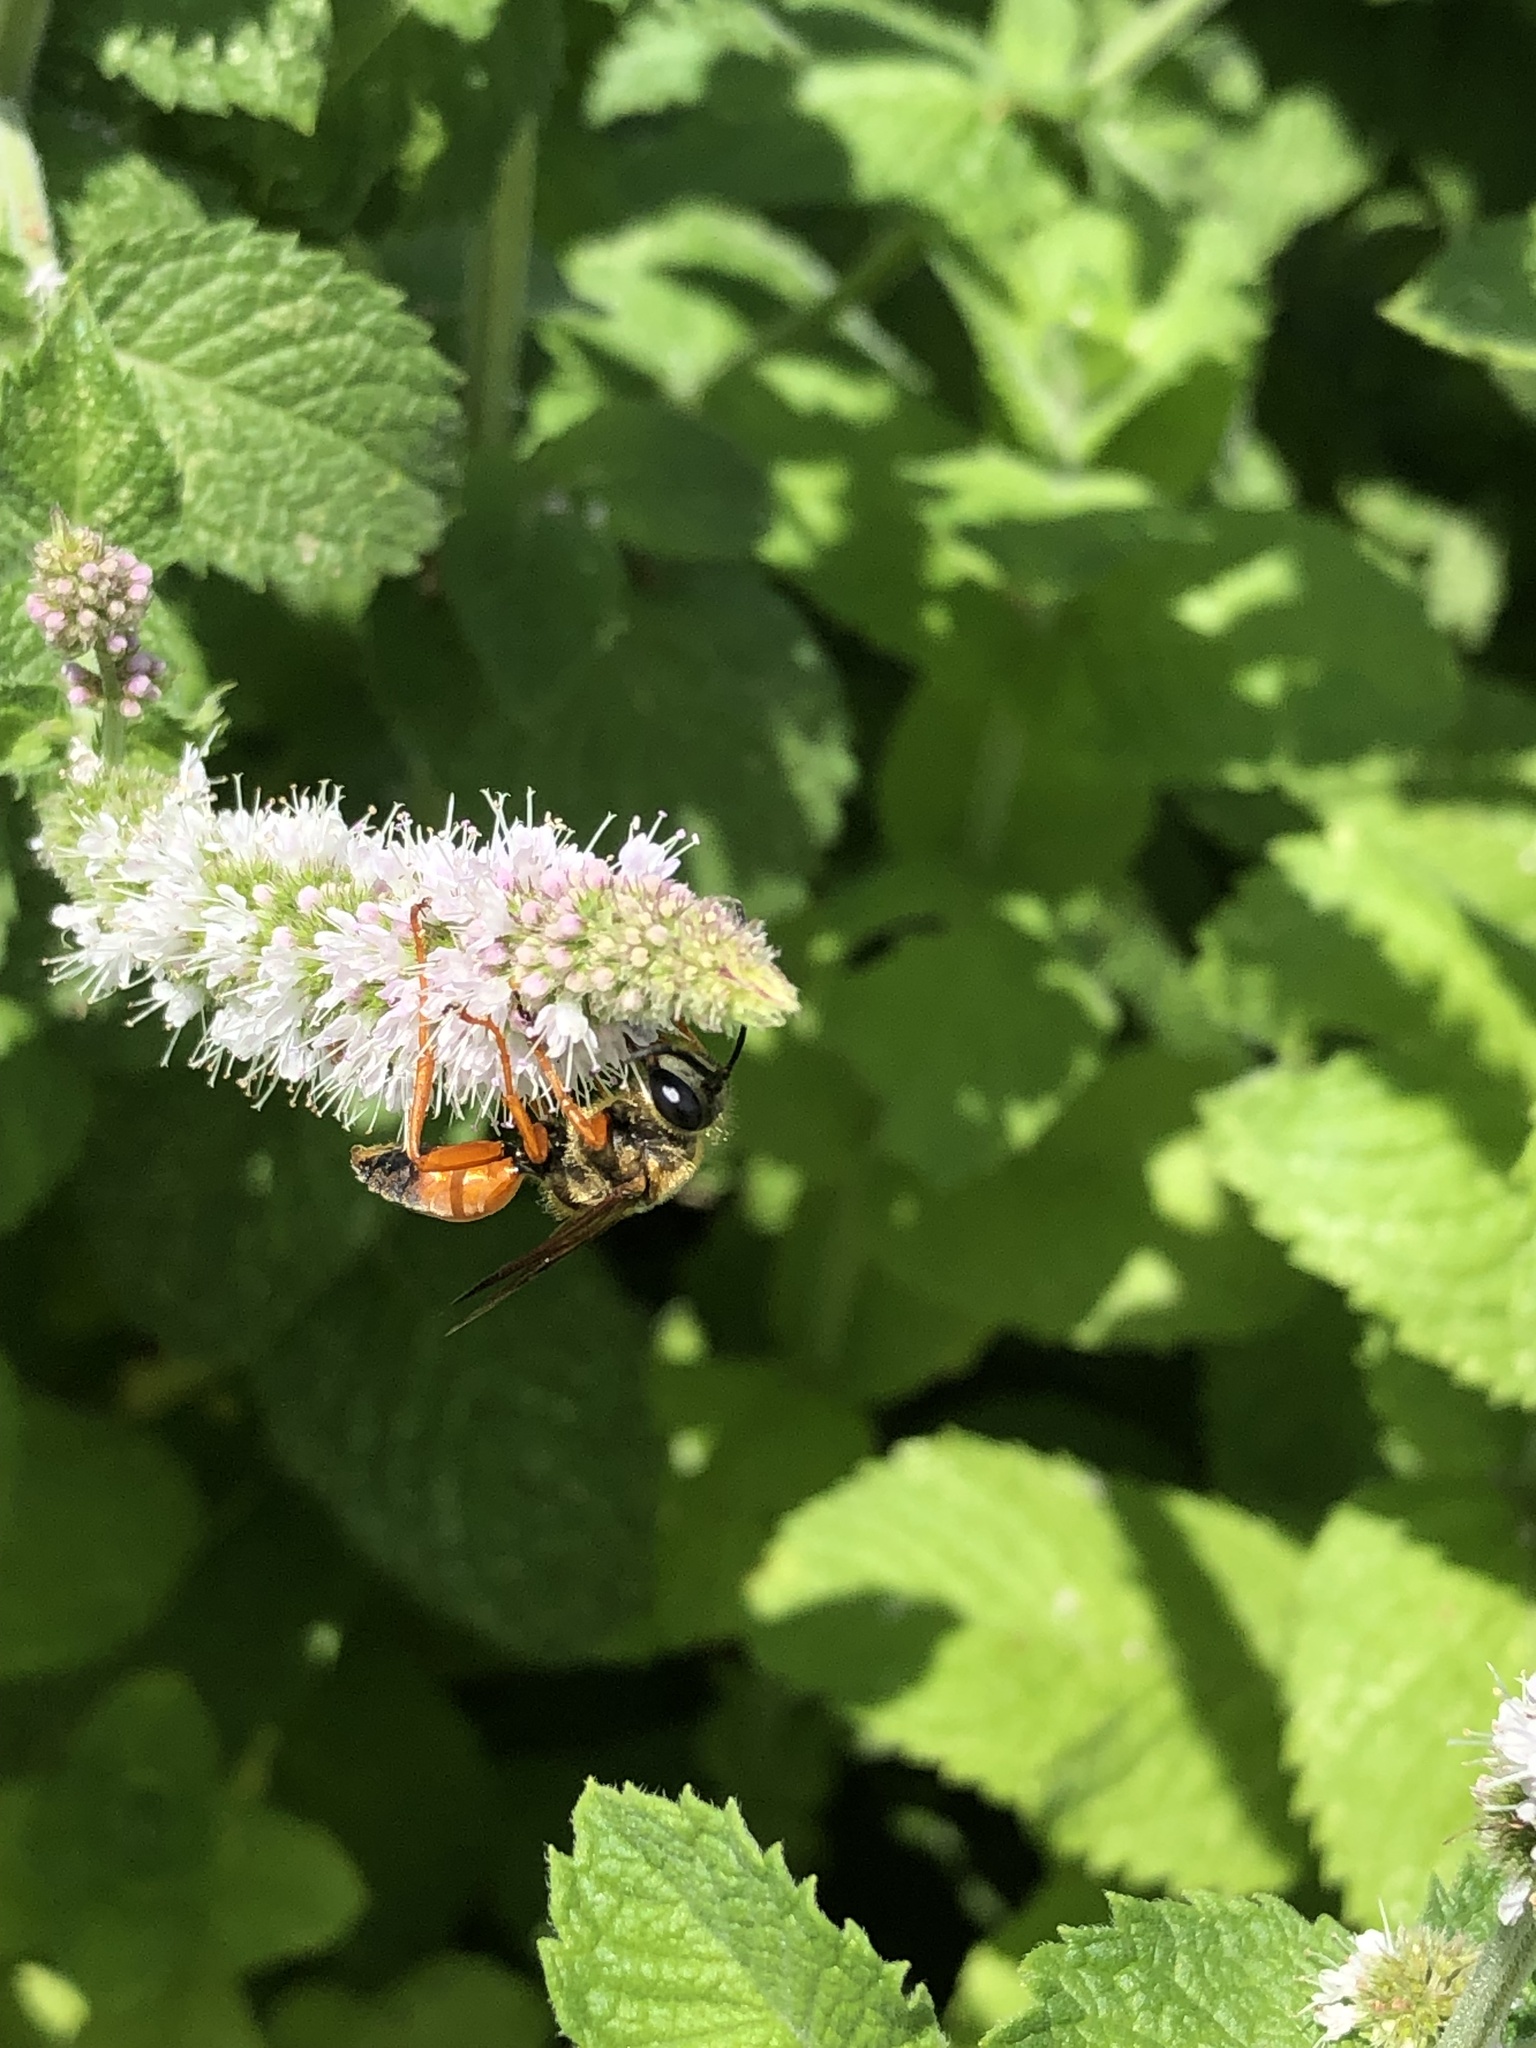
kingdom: Animalia
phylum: Arthropoda
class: Insecta
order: Hymenoptera
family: Sphecidae
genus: Sphex
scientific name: Sphex ichneumoneus
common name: Great golden digger wasp
